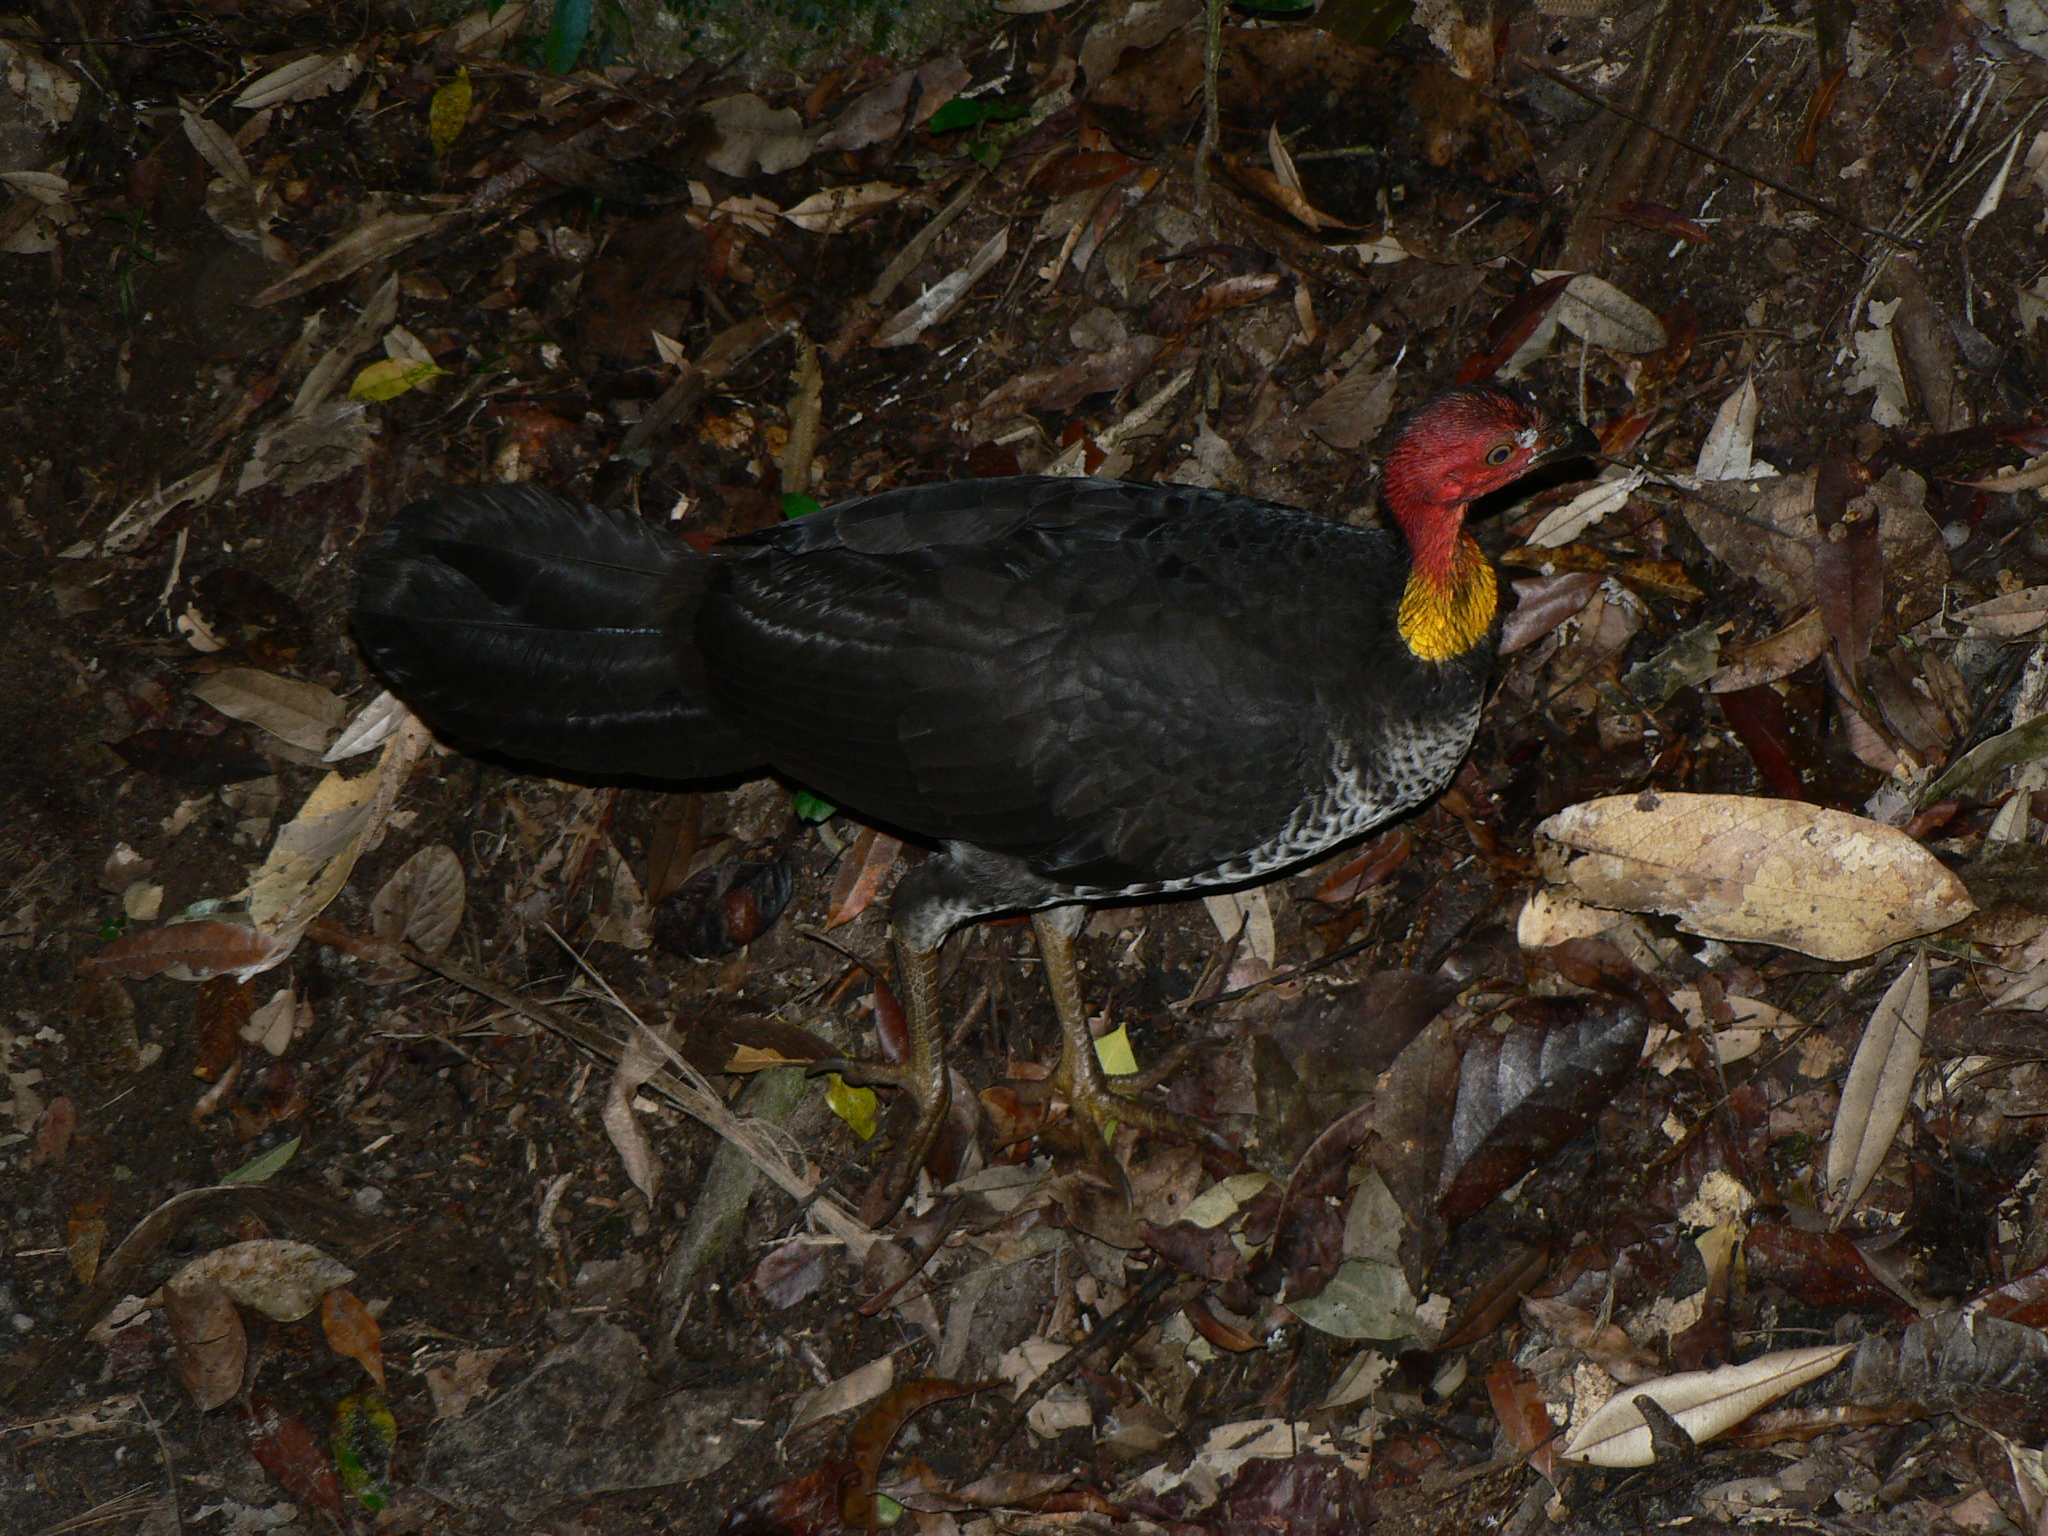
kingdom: Animalia
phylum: Chordata
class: Aves
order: Galliformes
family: Megapodiidae
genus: Alectura
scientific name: Alectura lathami
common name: Australian brushturkey
